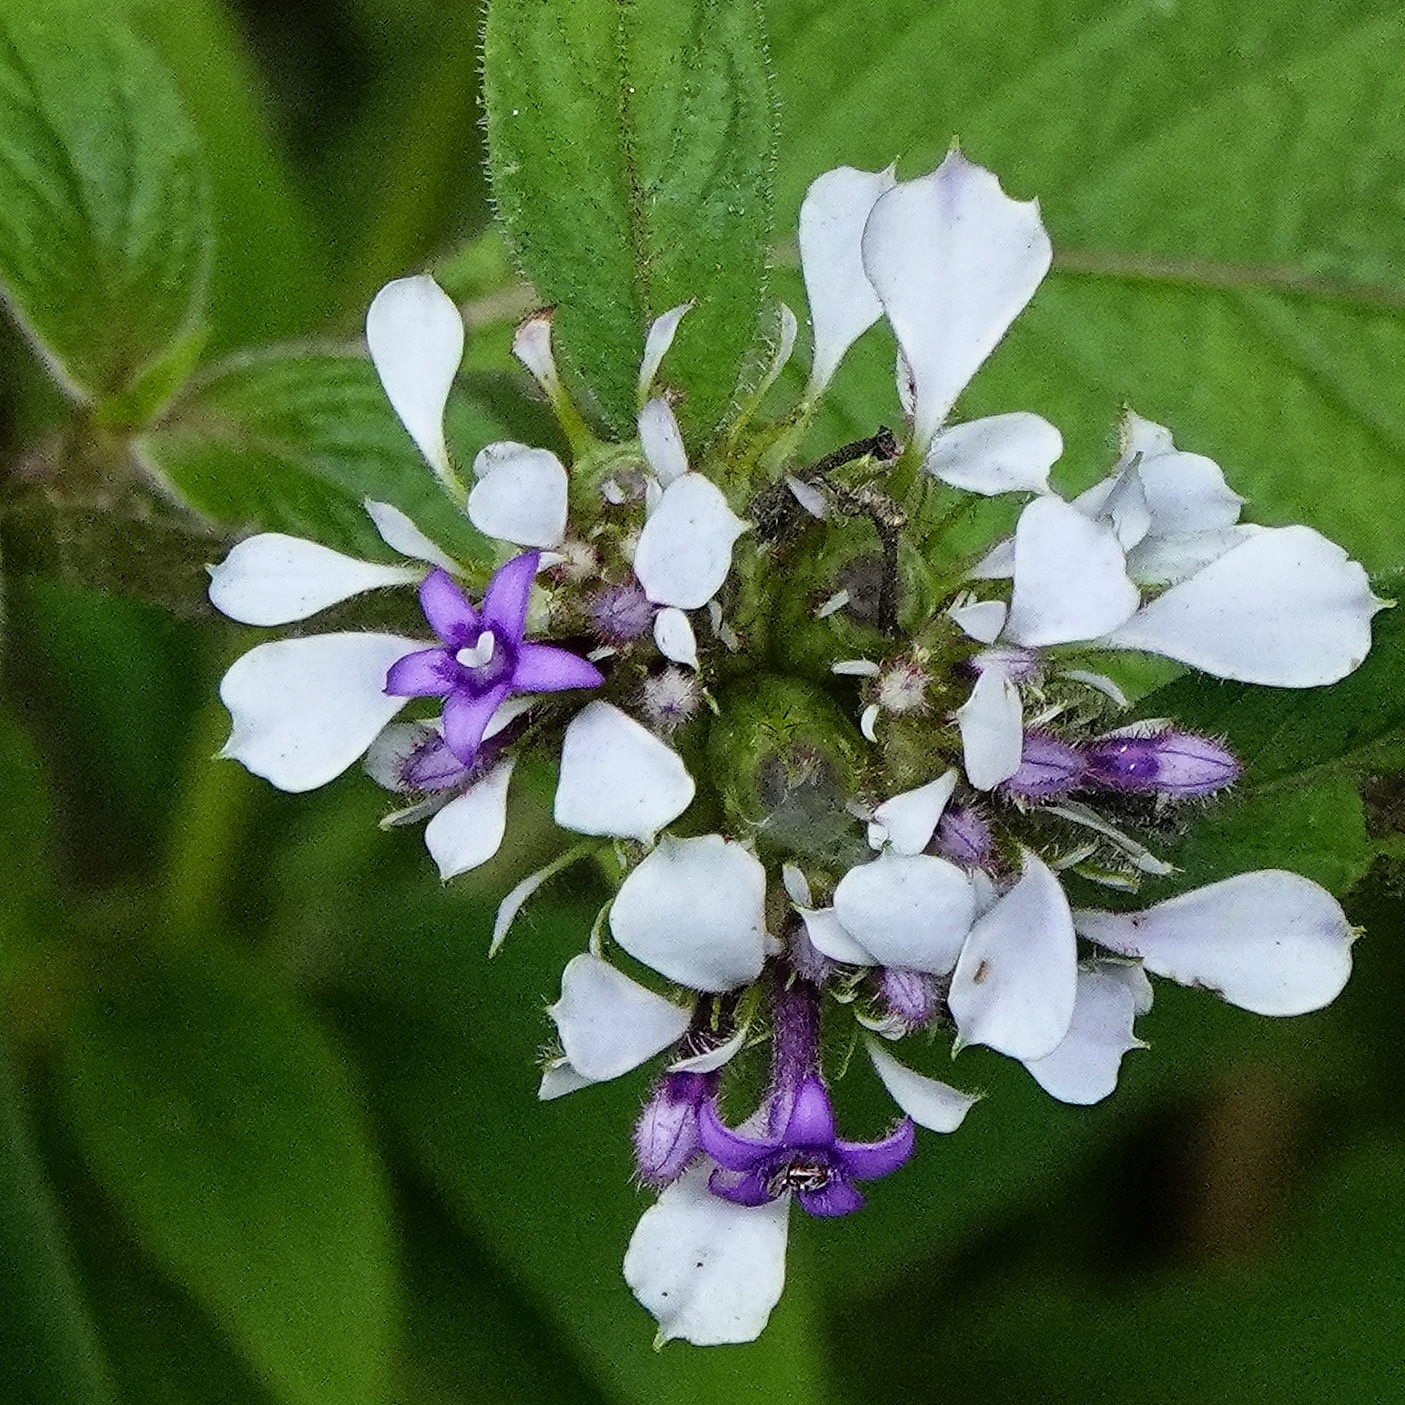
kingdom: Plantae
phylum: Tracheophyta
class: Magnoliopsida
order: Gentianales
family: Rubiaceae
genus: Phyllopentas
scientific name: Phyllopentas mussaendoides
